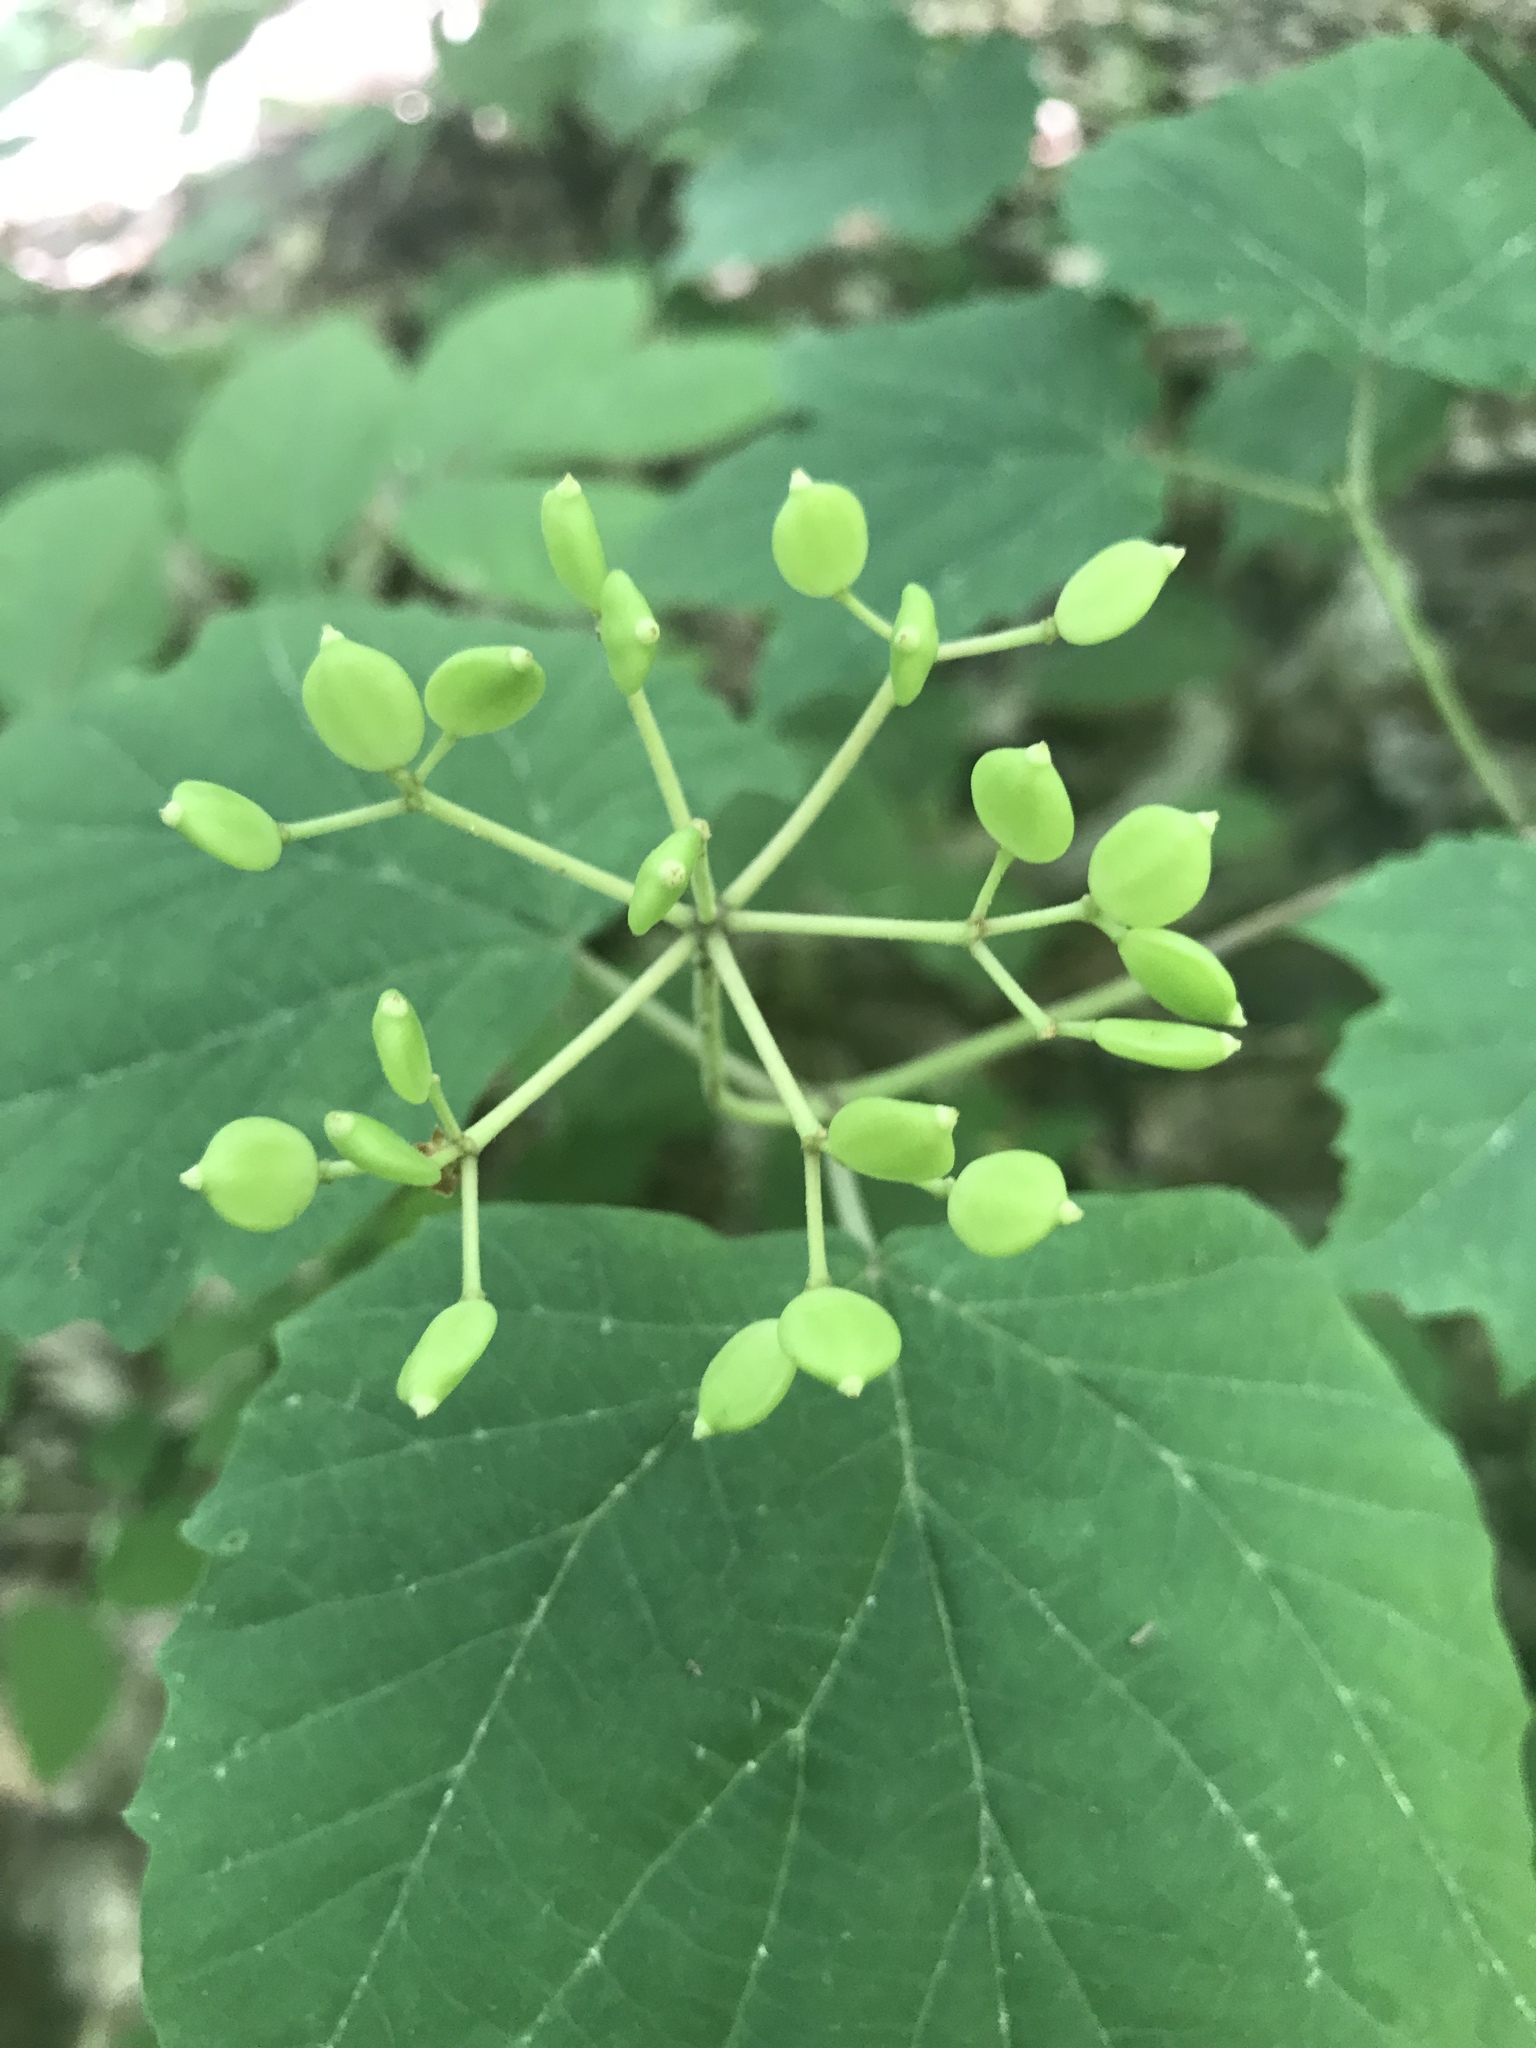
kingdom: Plantae
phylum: Tracheophyta
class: Magnoliopsida
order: Dipsacales
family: Viburnaceae
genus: Viburnum
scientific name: Viburnum acerifolium
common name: Dockmackie
